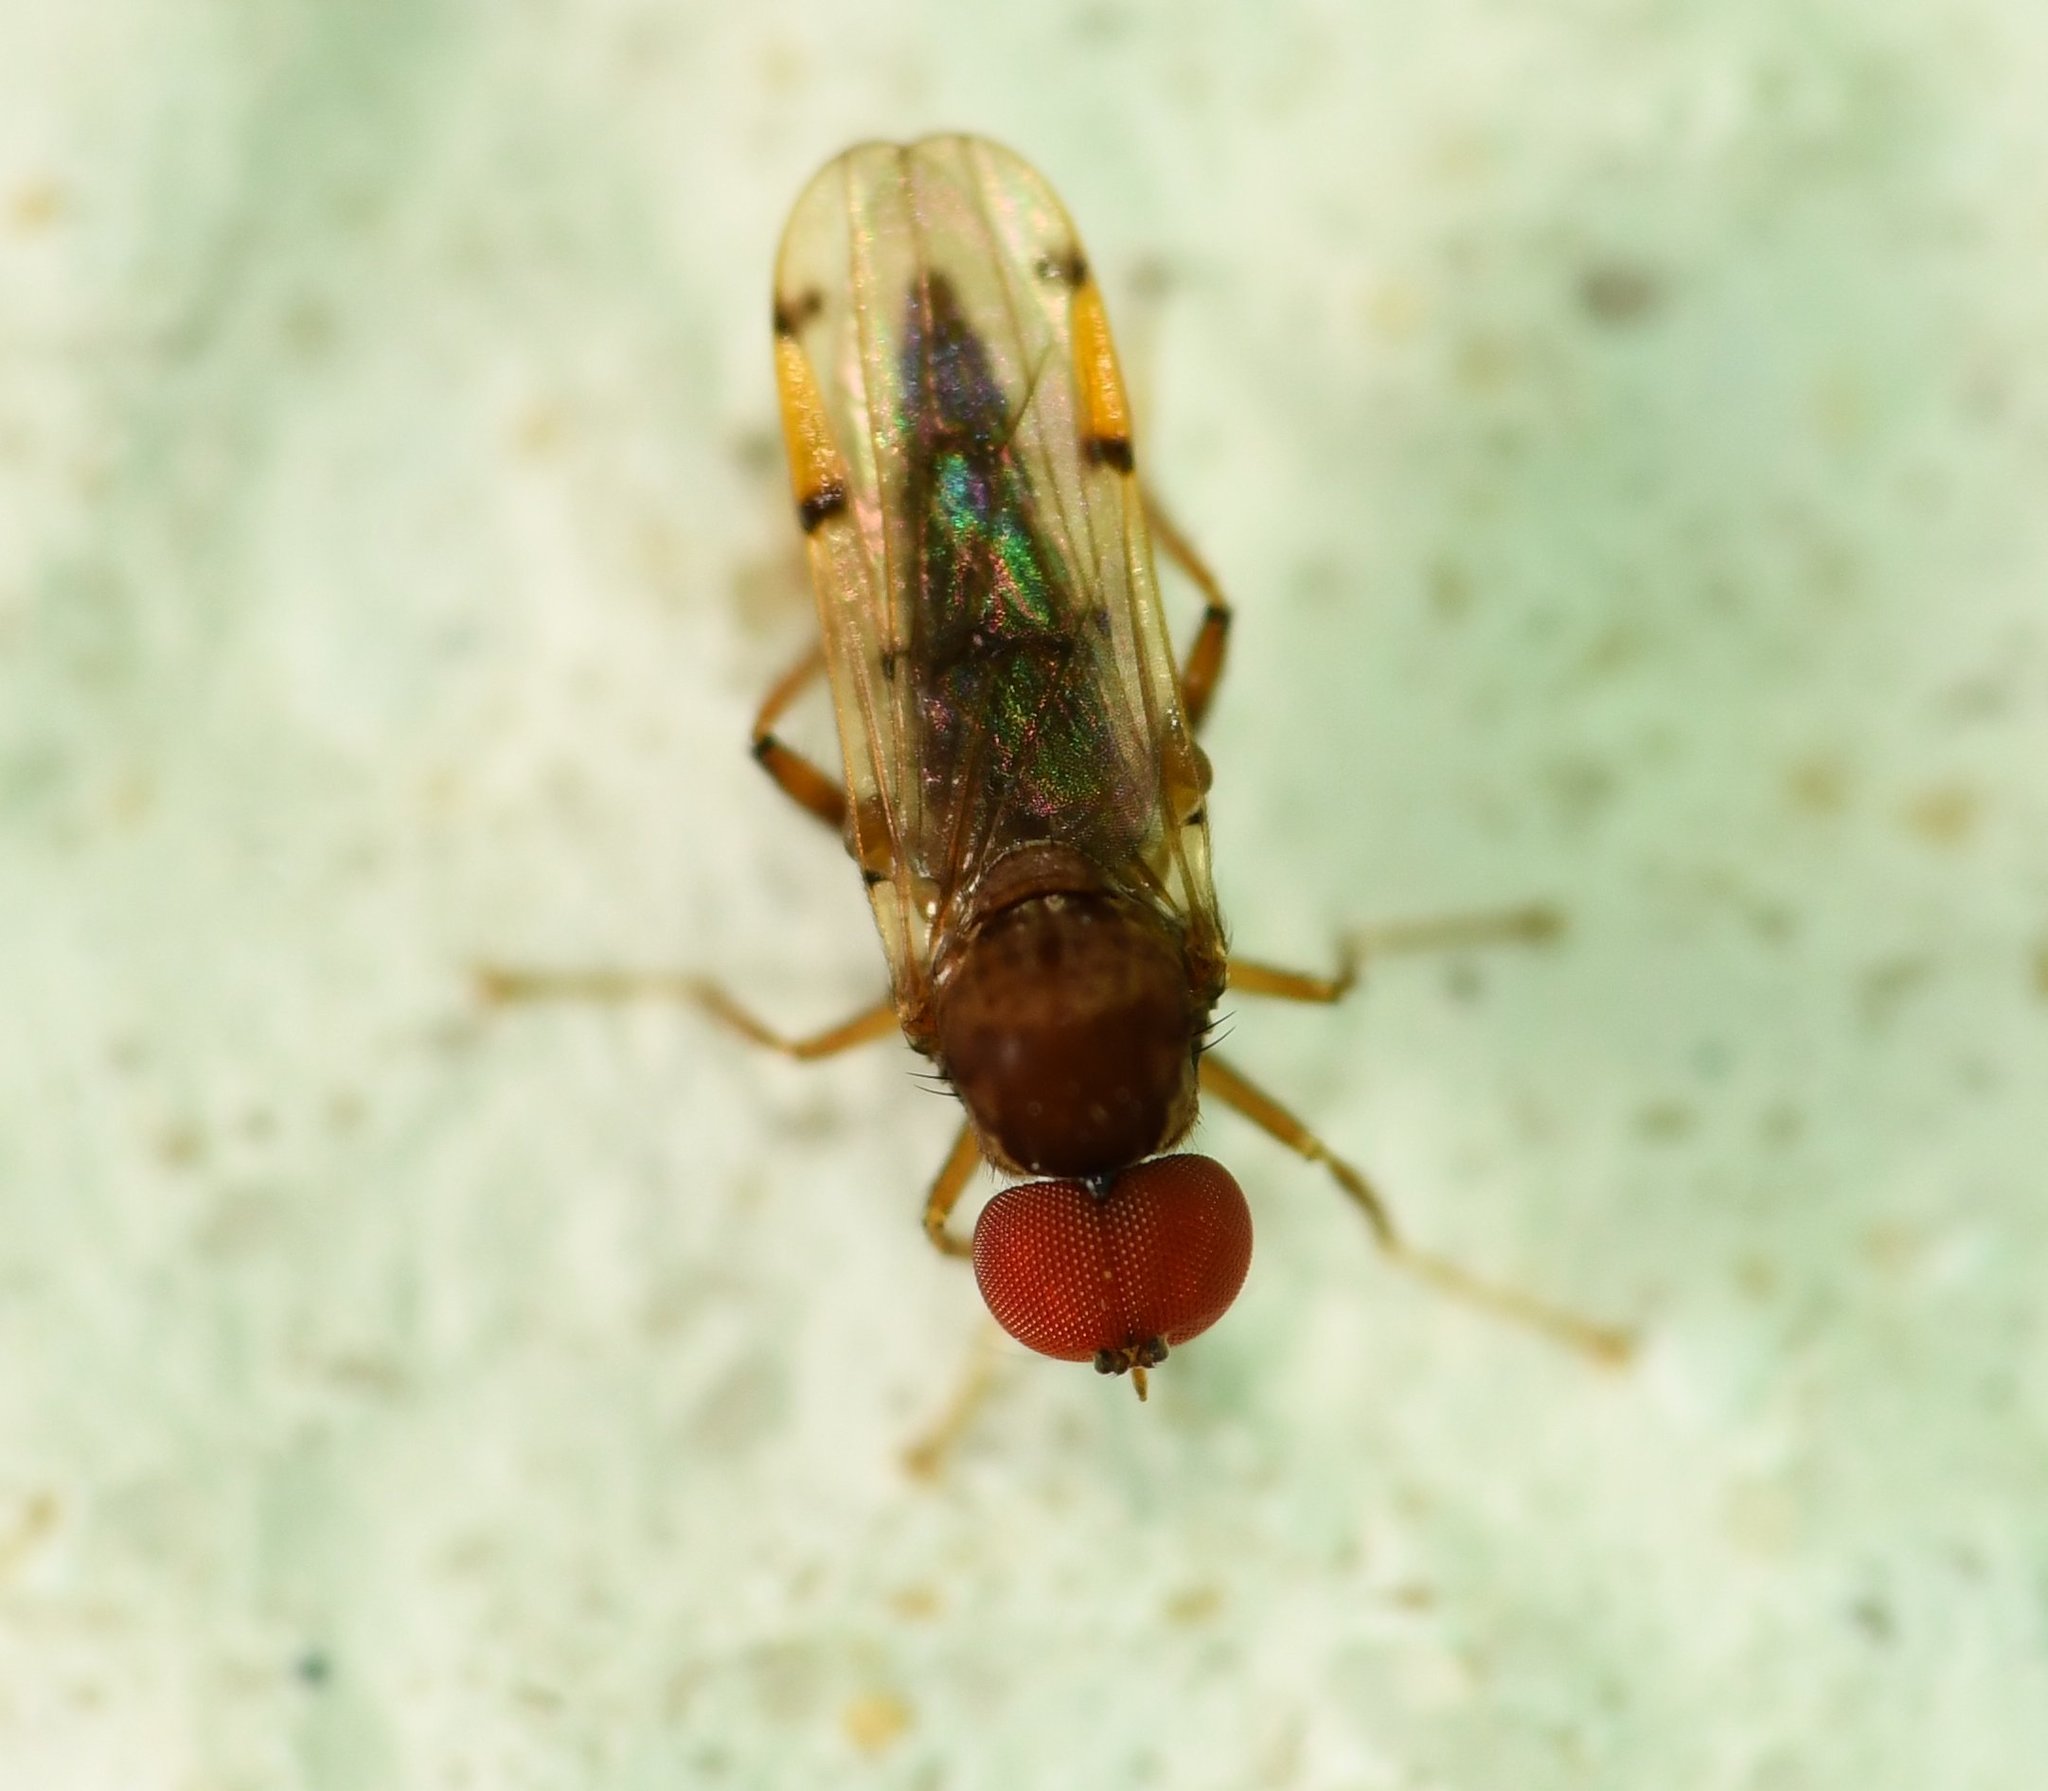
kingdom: Animalia
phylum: Arthropoda
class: Insecta
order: Diptera
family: Hybotidae
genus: Syneches
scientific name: Syneches simplex
